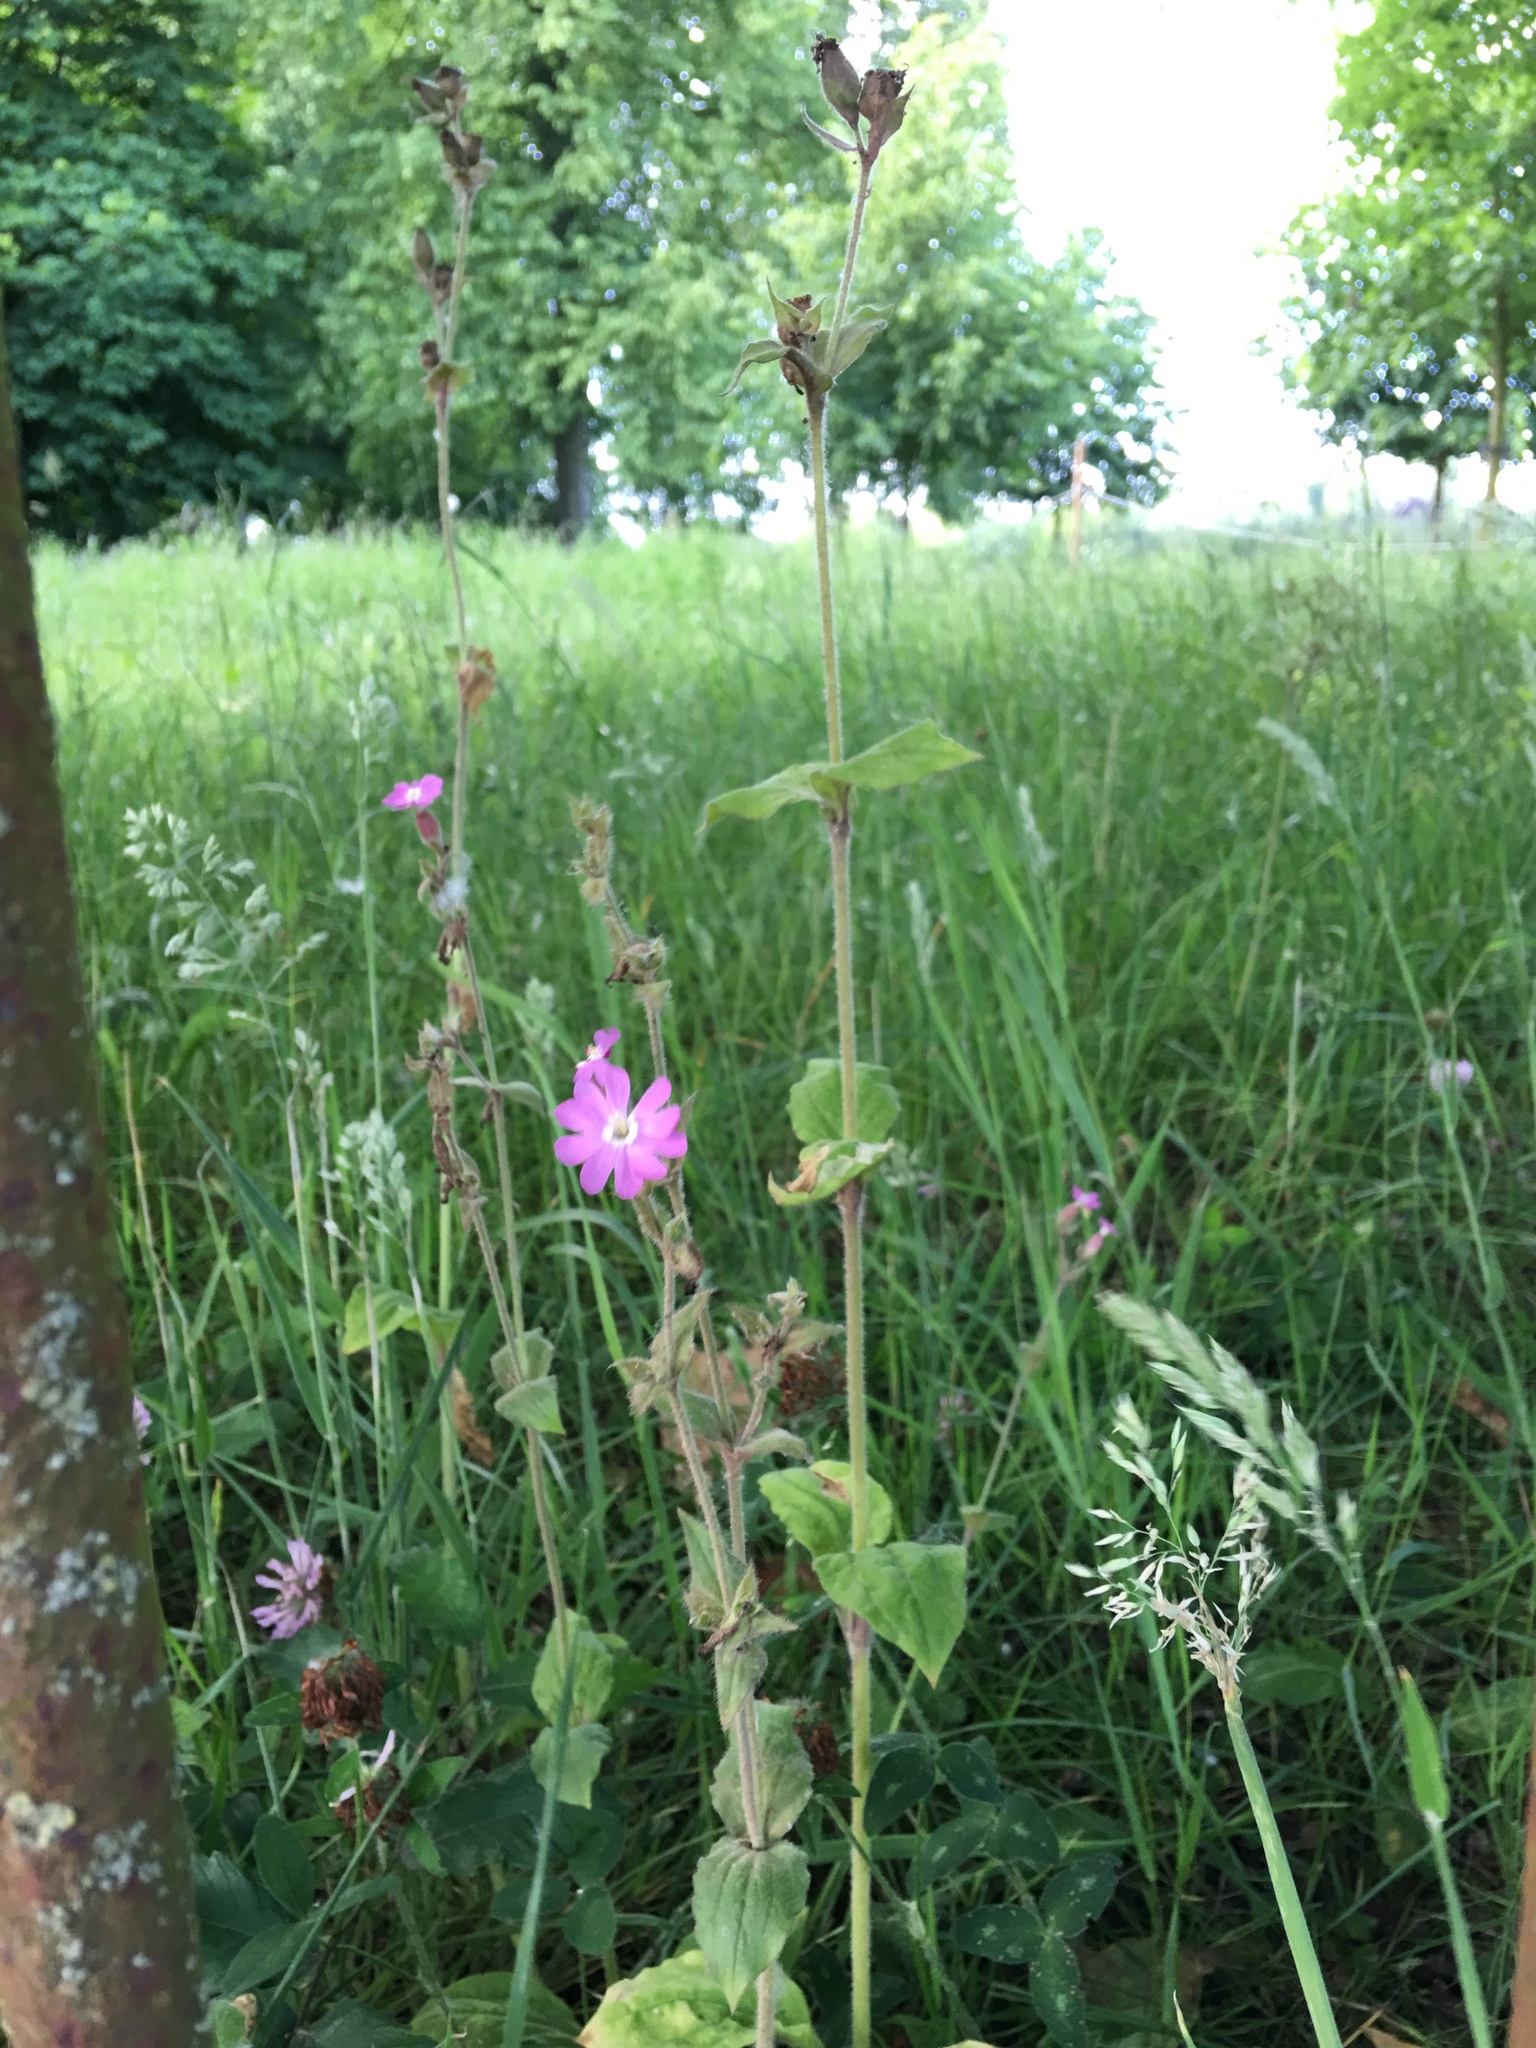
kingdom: Plantae
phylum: Tracheophyta
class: Magnoliopsida
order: Caryophyllales
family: Caryophyllaceae
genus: Silene
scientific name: Silene dioica
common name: Red campion
